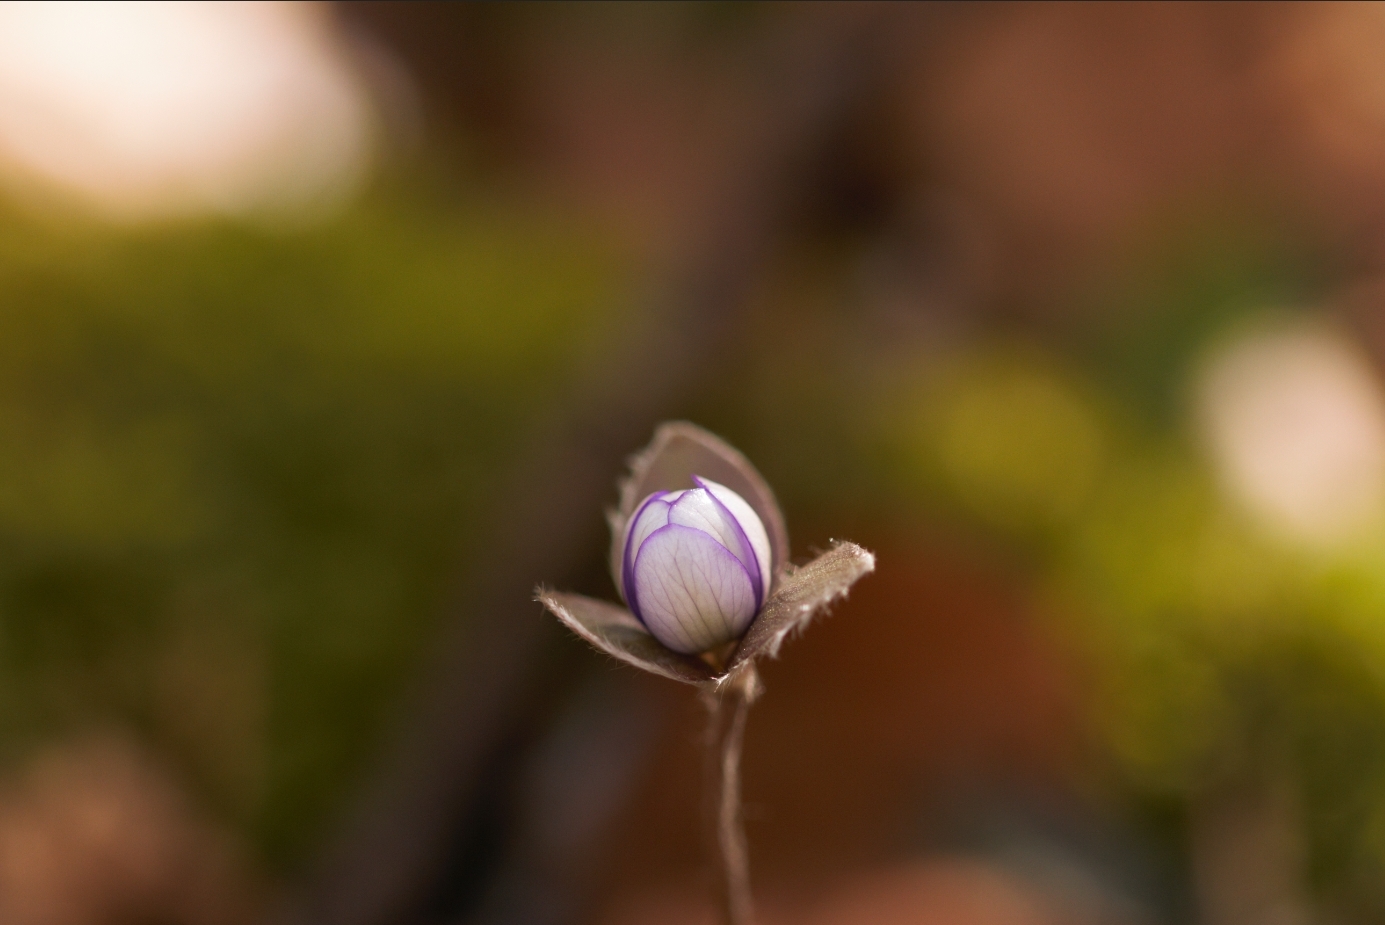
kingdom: Plantae
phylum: Tracheophyta
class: Magnoliopsida
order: Ranunculales
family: Ranunculaceae
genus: Hepatica
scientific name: Hepatica nobilis
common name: Liverleaf
